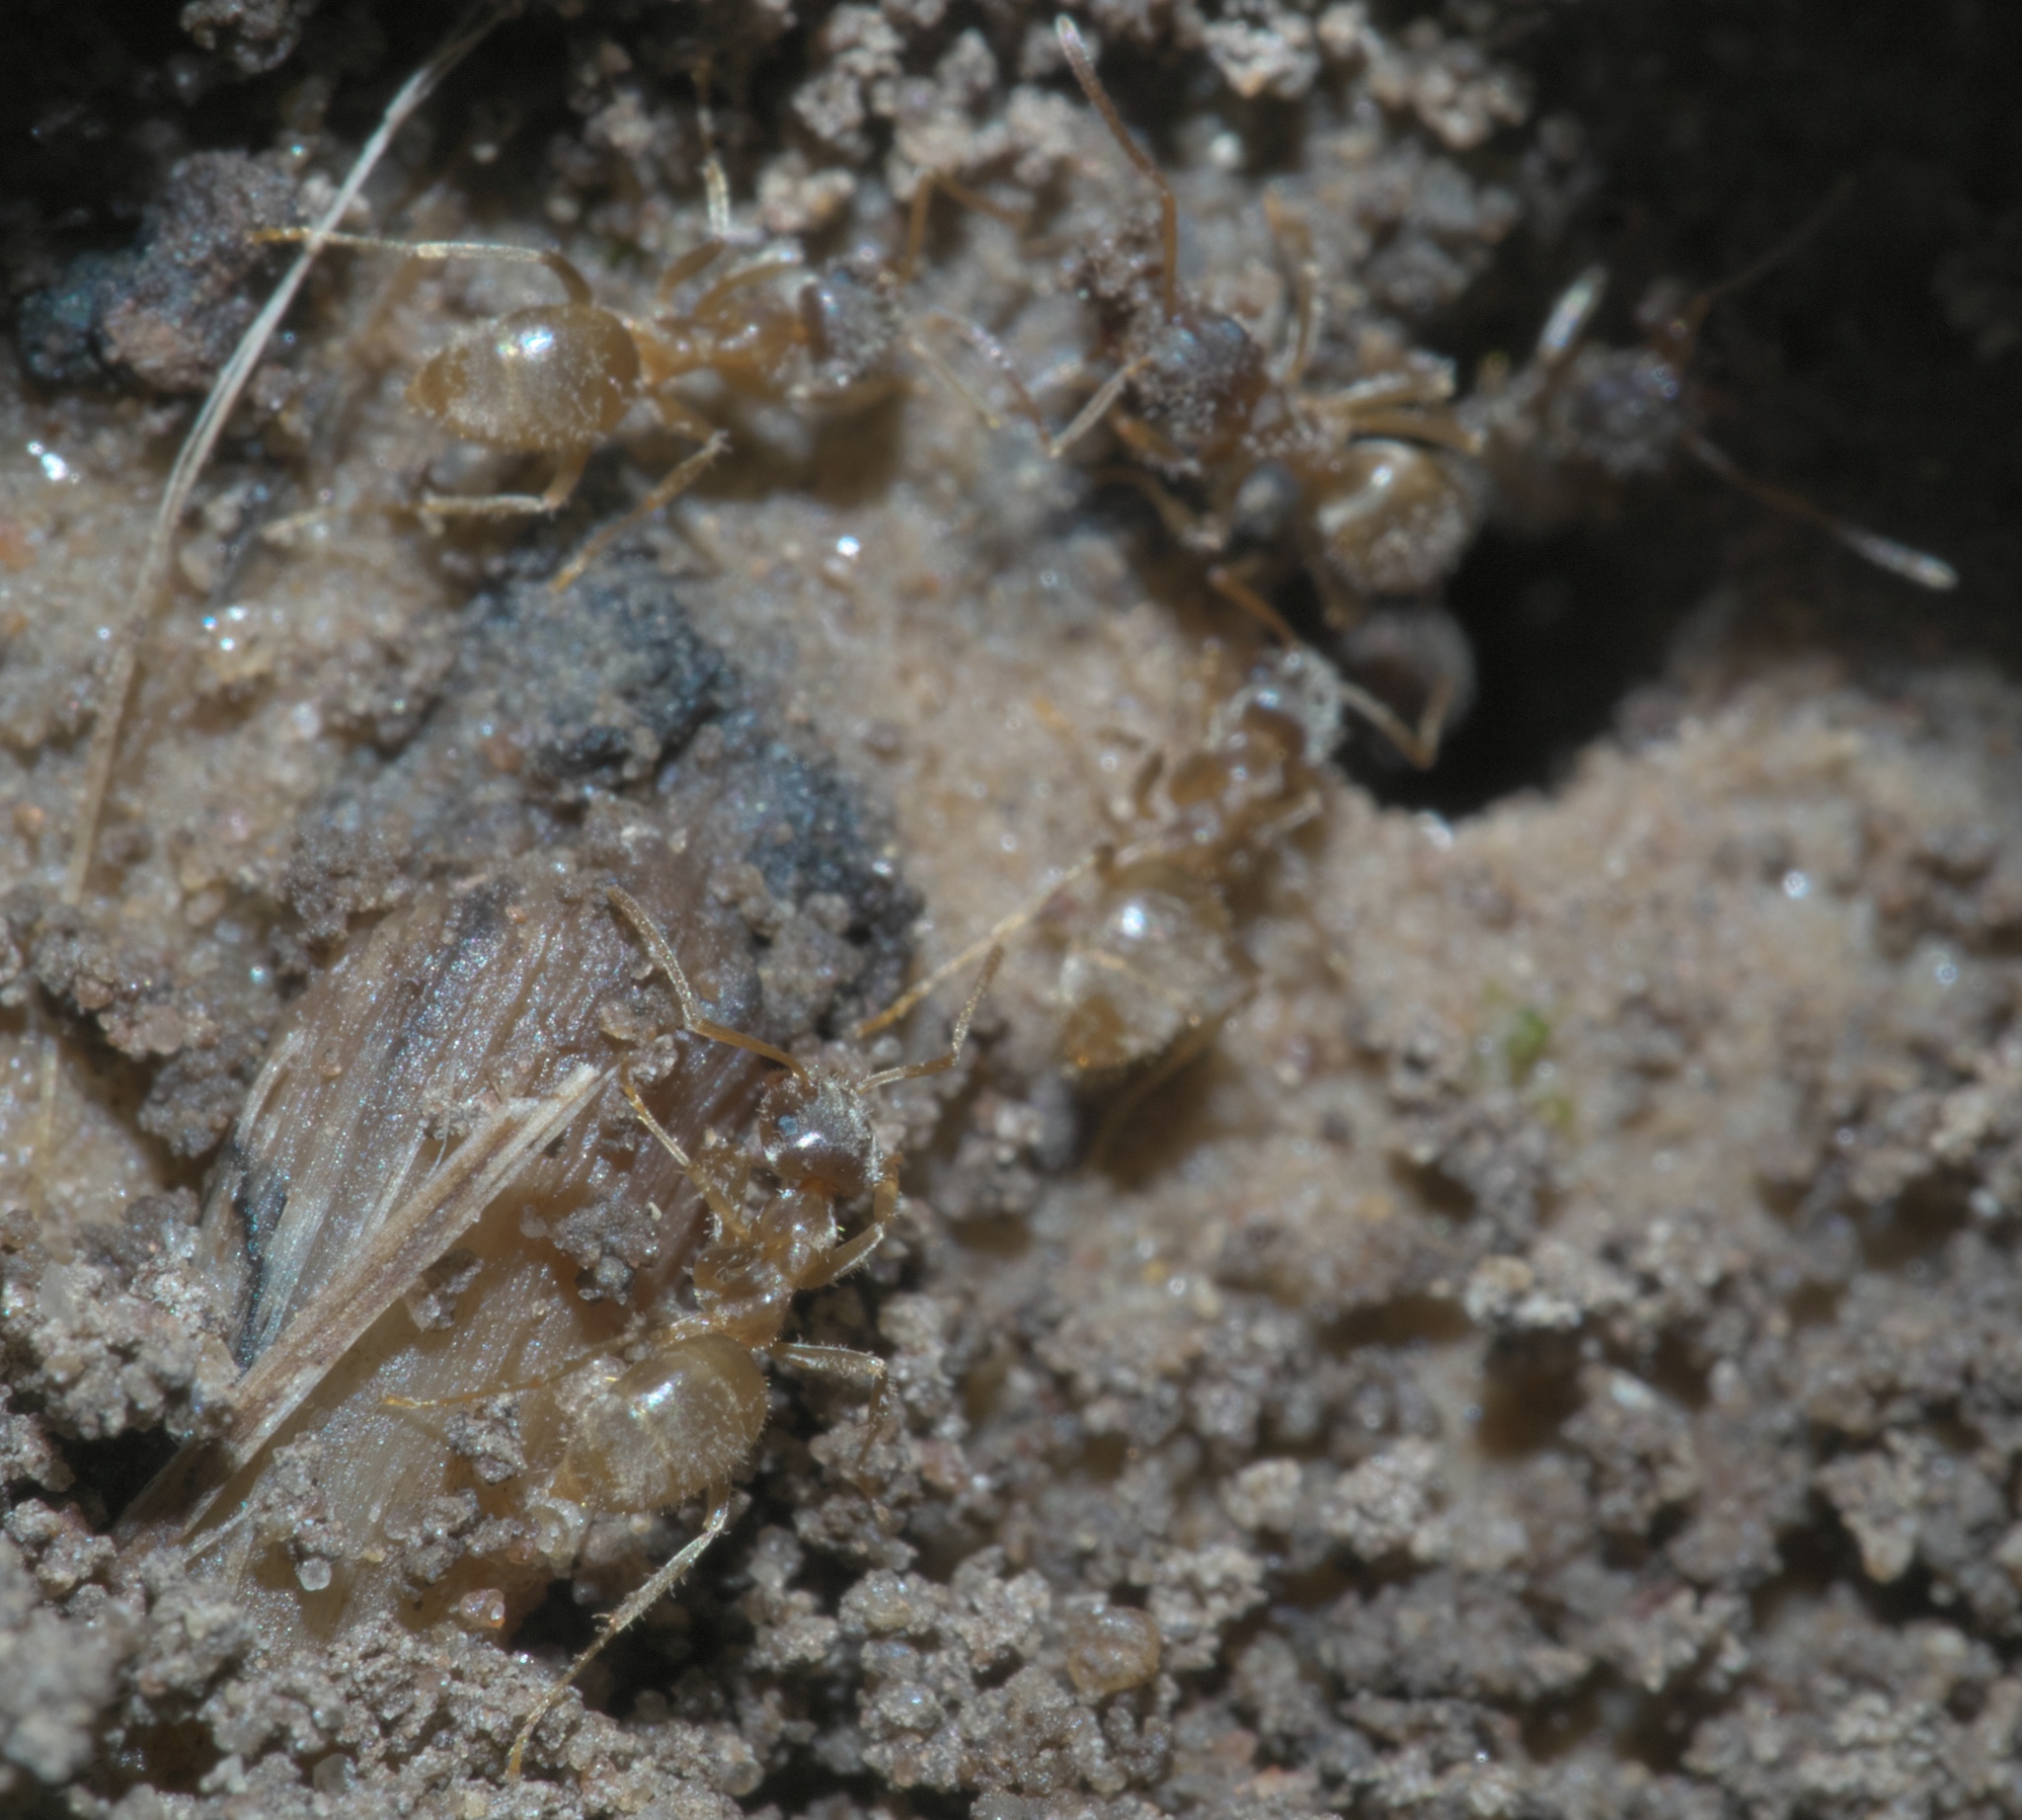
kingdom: Animalia
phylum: Arthropoda
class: Insecta
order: Hymenoptera
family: Formicidae
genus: Lasius
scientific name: Lasius americanus
